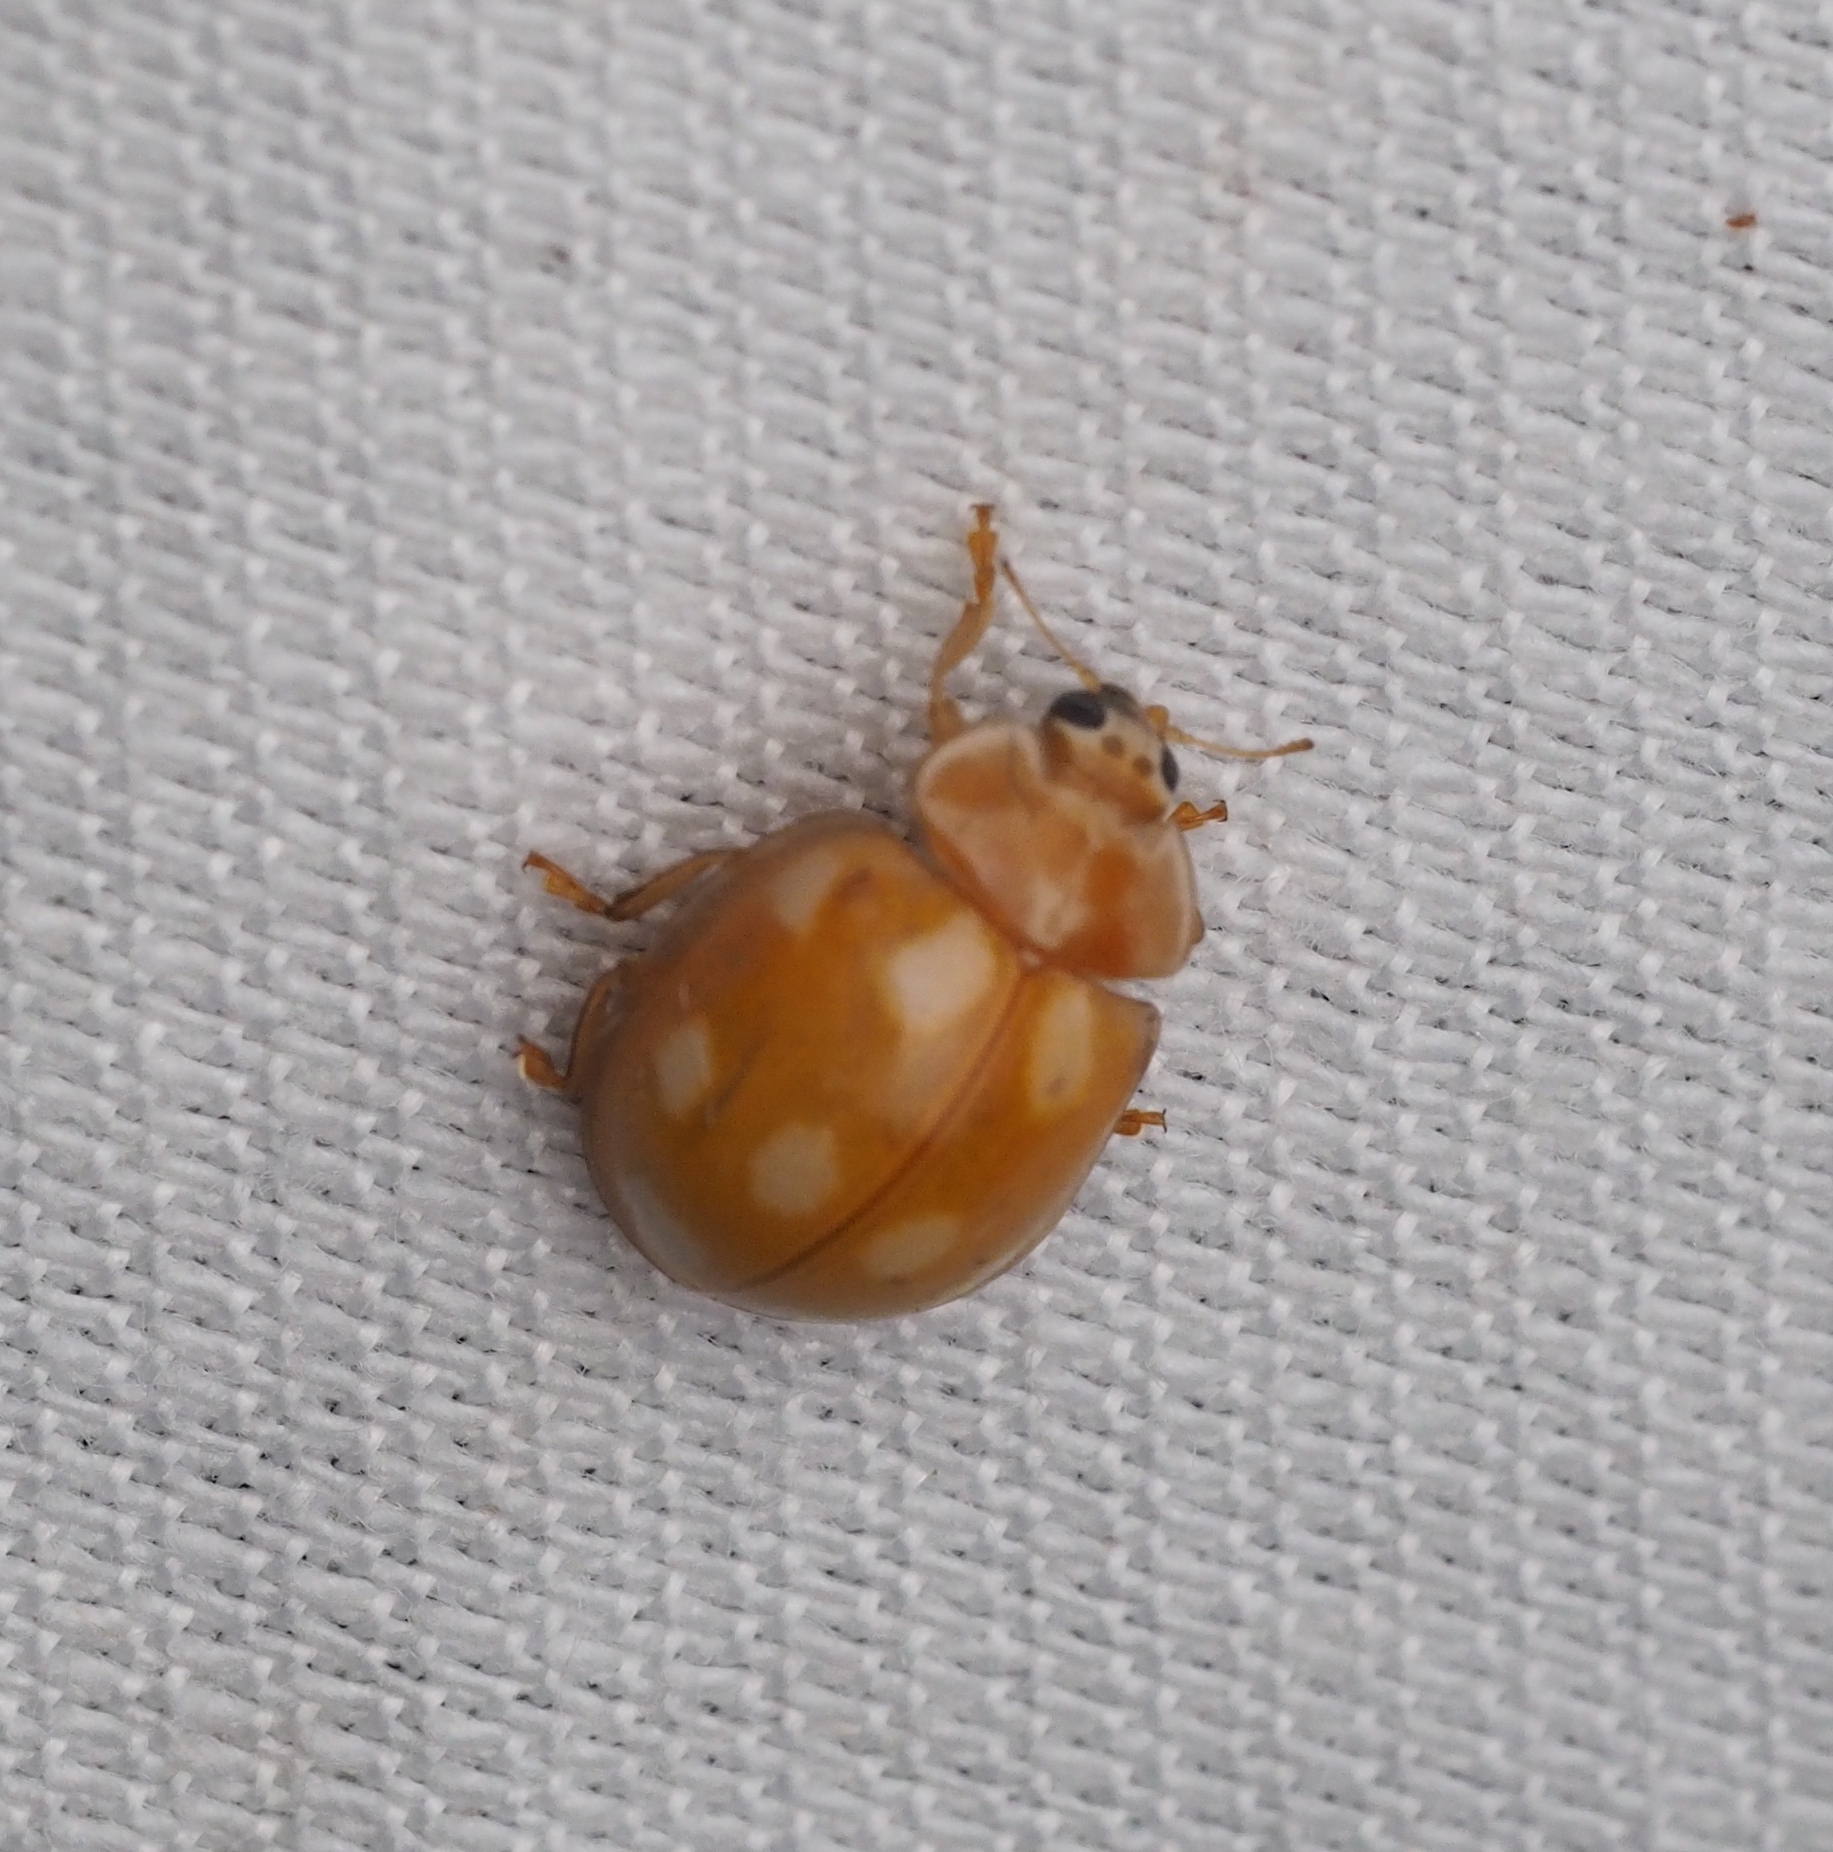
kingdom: Animalia
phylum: Arthropoda
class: Insecta
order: Coleoptera
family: Coccinellidae
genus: Calvia
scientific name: Calvia decemguttata
